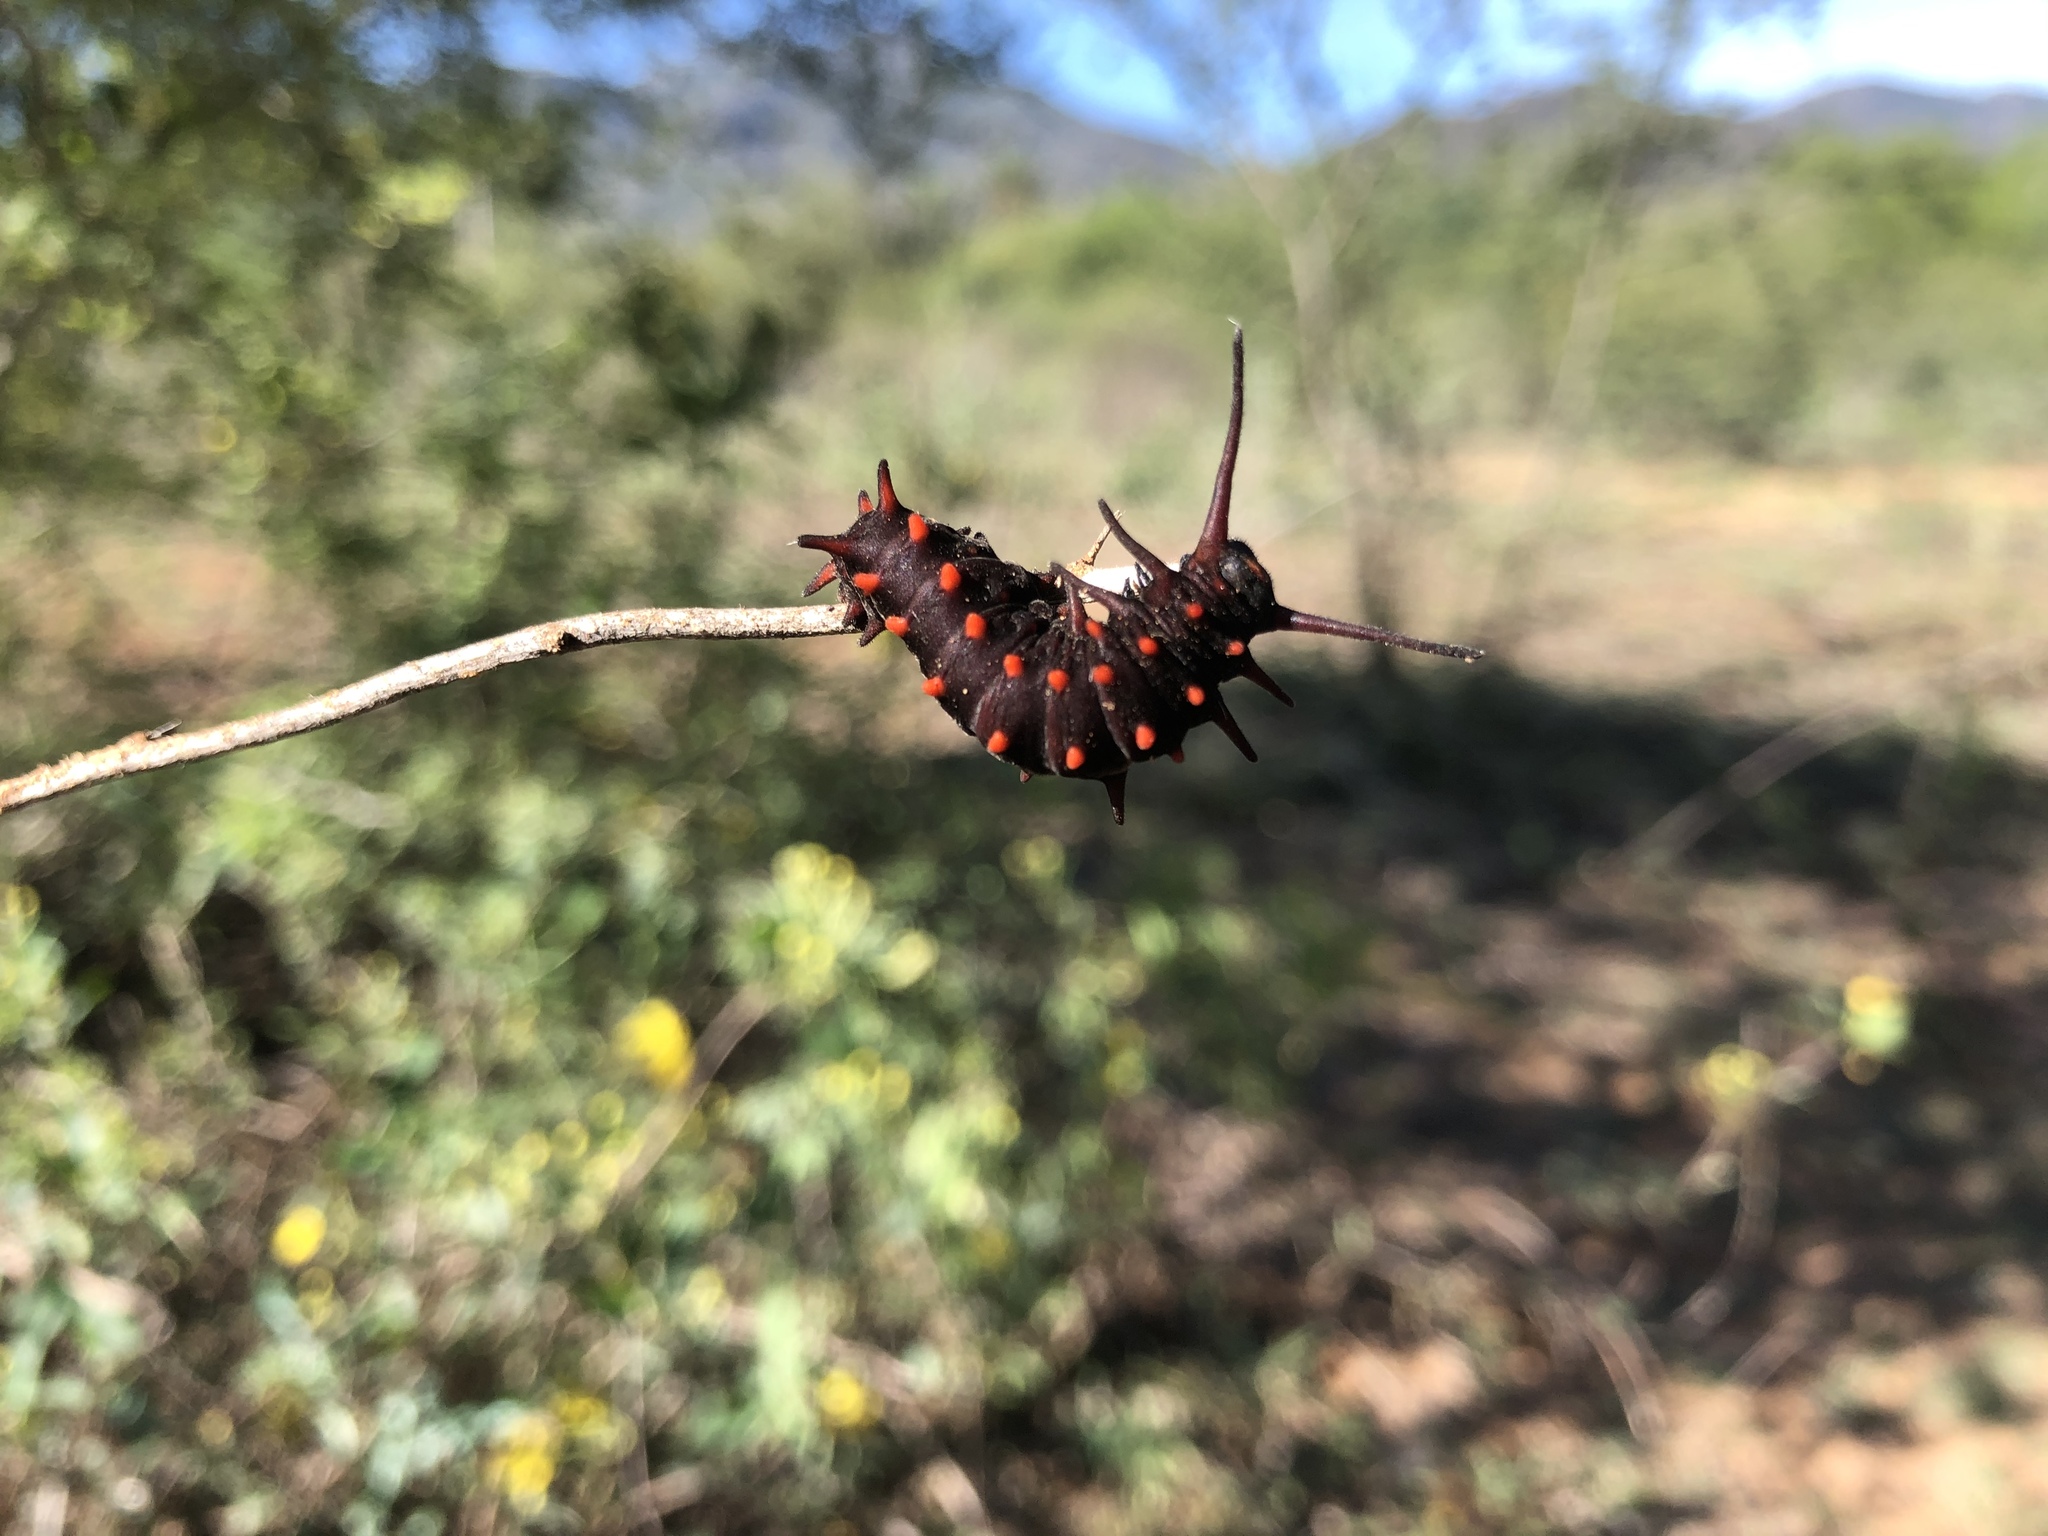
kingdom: Animalia
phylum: Arthropoda
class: Insecta
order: Lepidoptera
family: Papilionidae
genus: Battus
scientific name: Battus philenor
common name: Pipevine swallowtail
